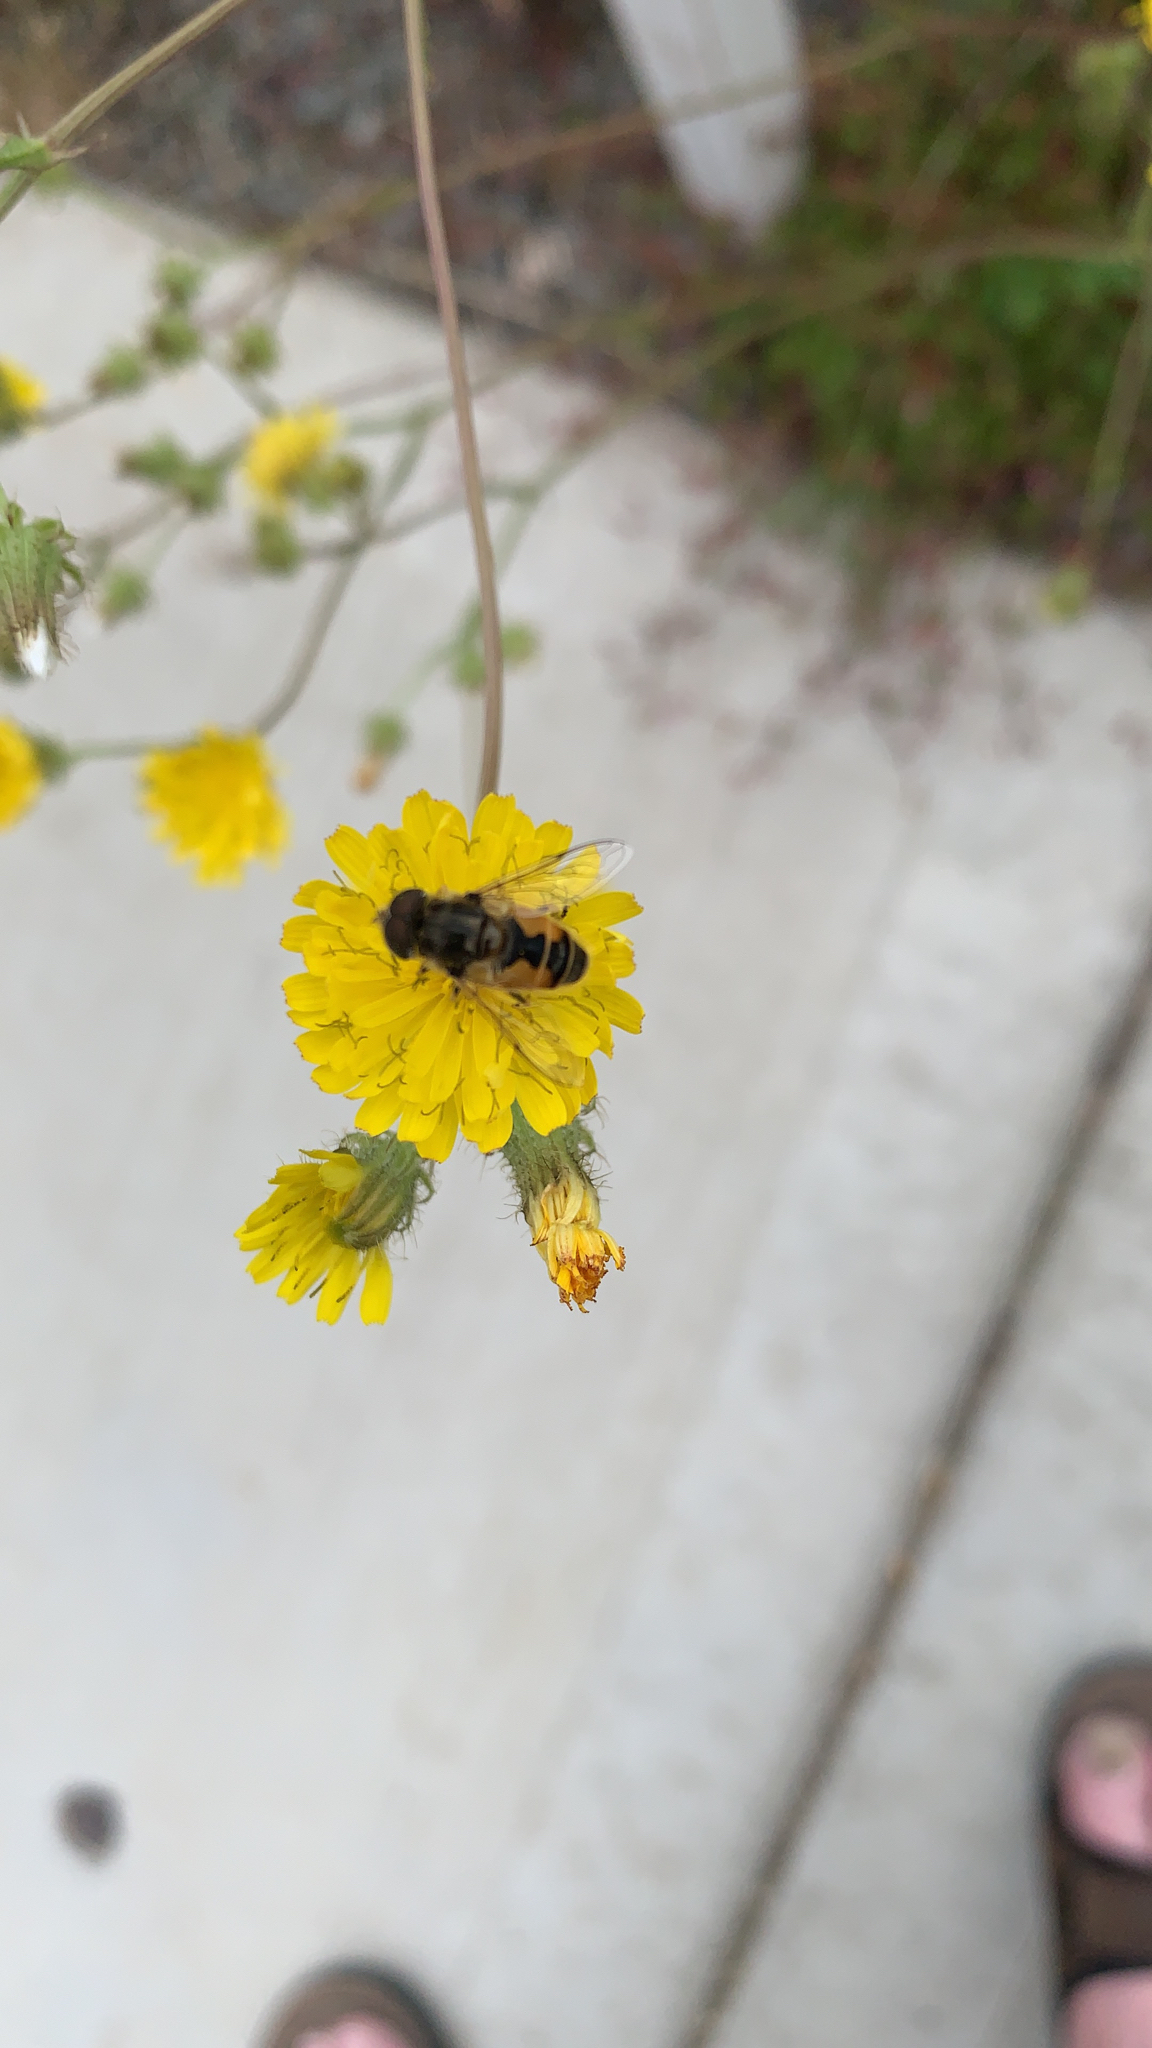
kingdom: Animalia
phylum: Arthropoda
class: Insecta
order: Diptera
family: Syrphidae
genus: Eristalis
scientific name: Eristalis arbustorum
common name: Hover fly
